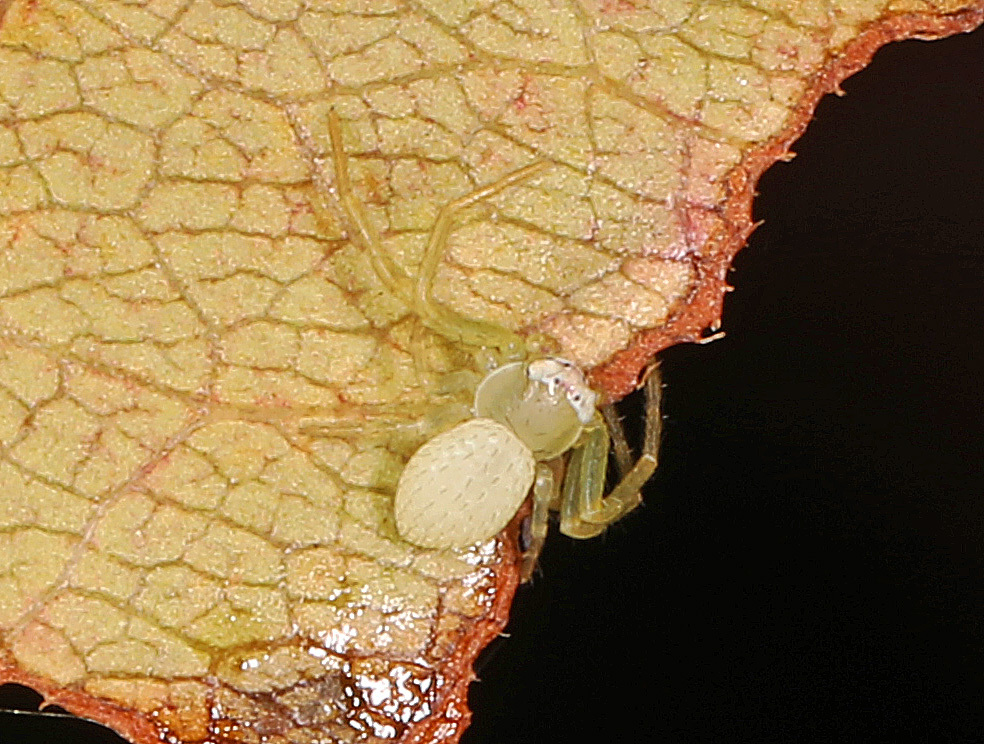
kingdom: Animalia
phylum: Arthropoda
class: Arachnida
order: Araneae
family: Thomisidae
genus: Misumessus
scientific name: Misumessus oblongus
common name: American green crab spider
